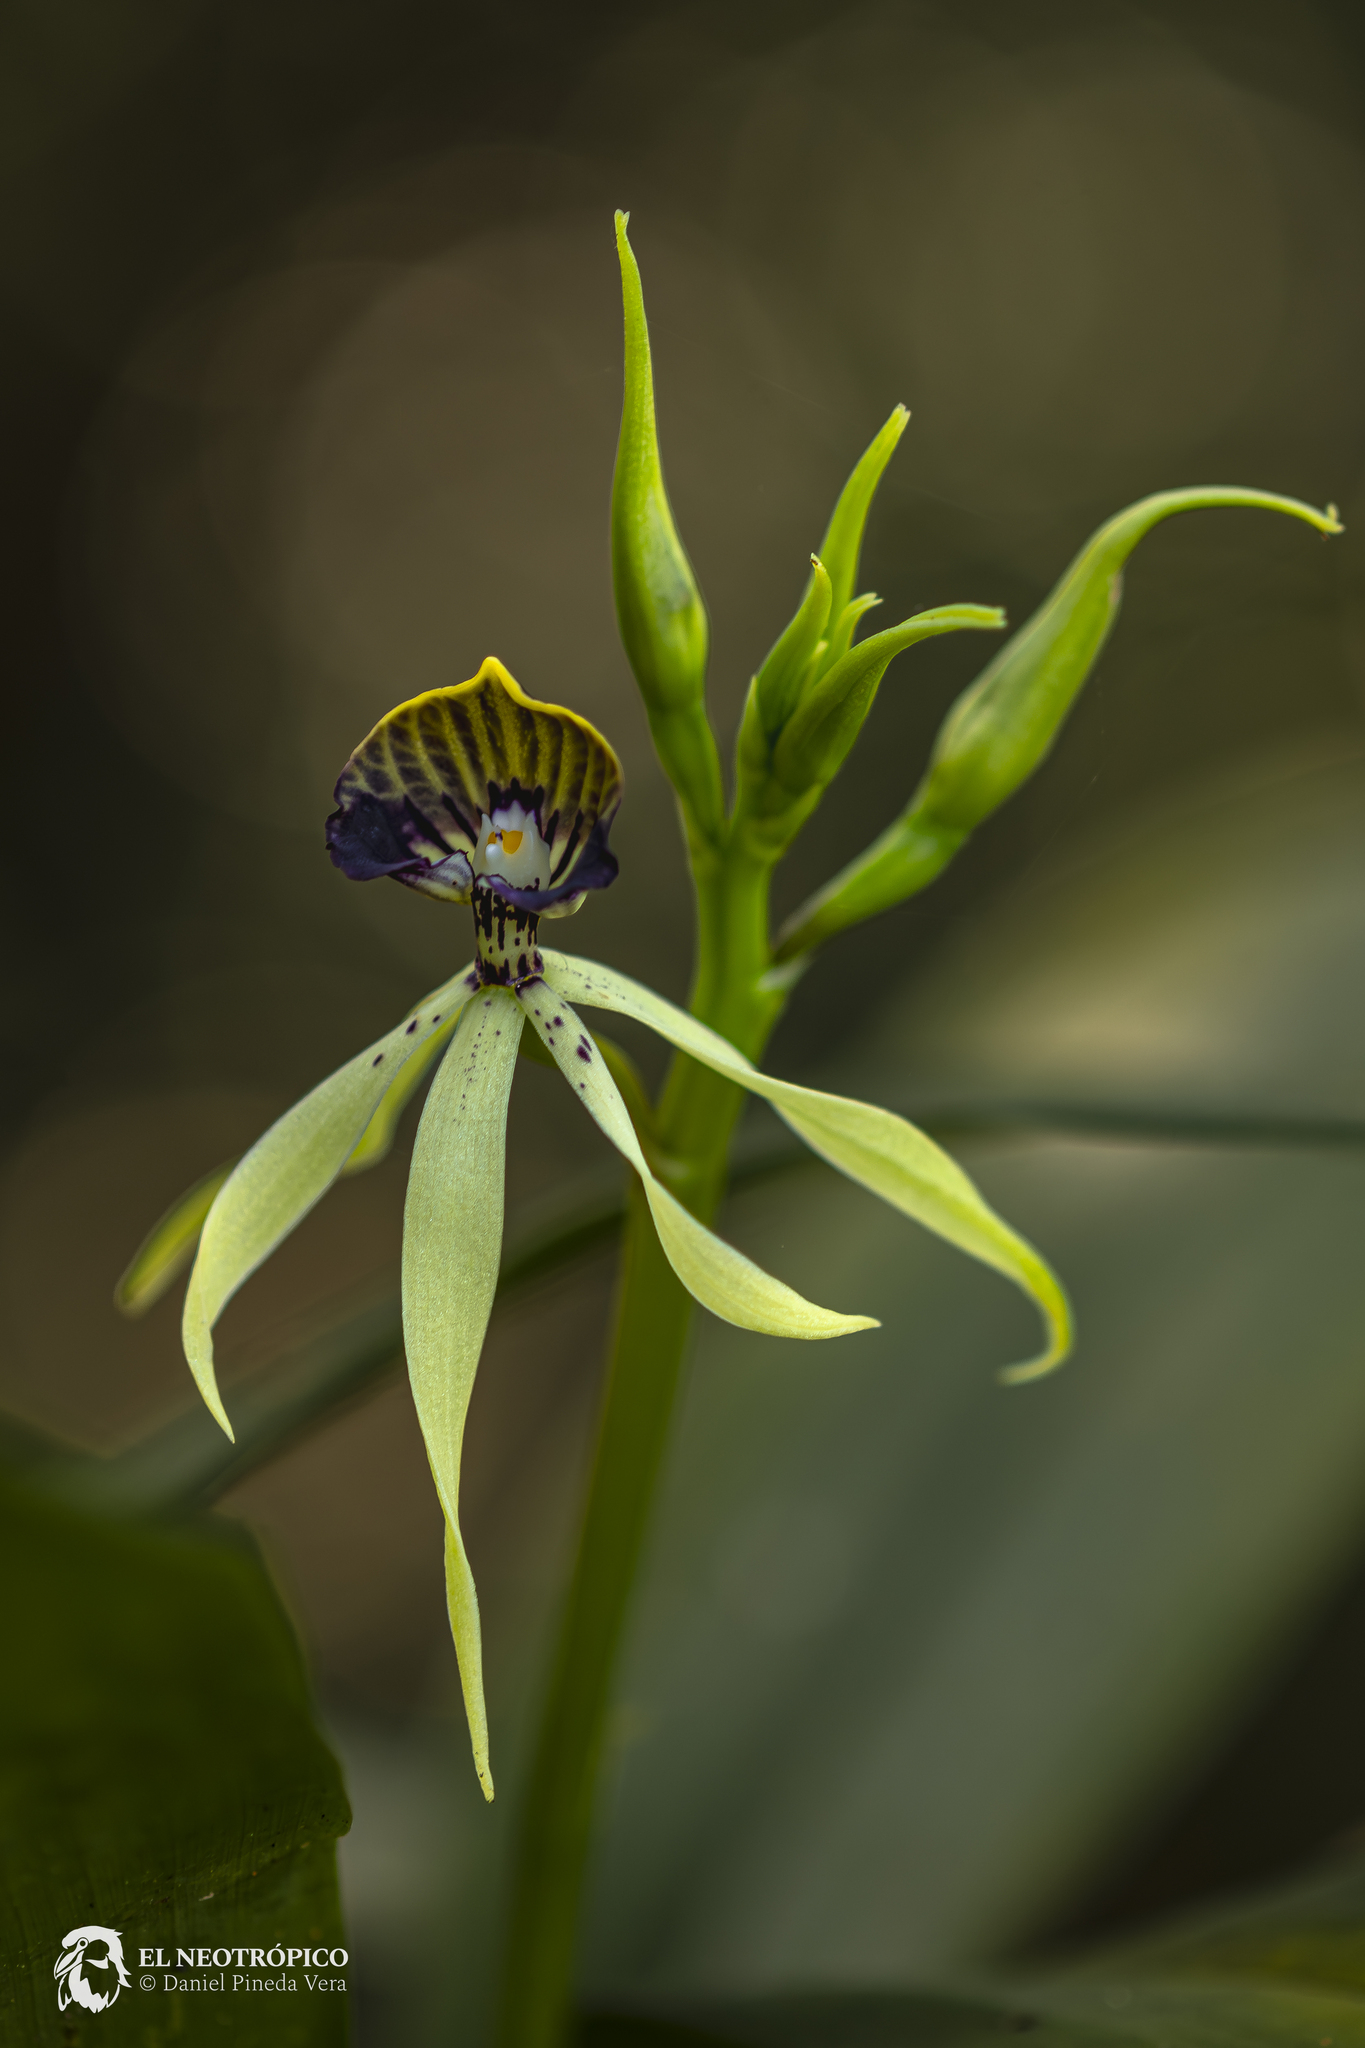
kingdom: Plantae
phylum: Tracheophyta
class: Liliopsida
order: Asparagales
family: Orchidaceae
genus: Prosthechea
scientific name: Prosthechea cochleata
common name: Clamshell orchid
